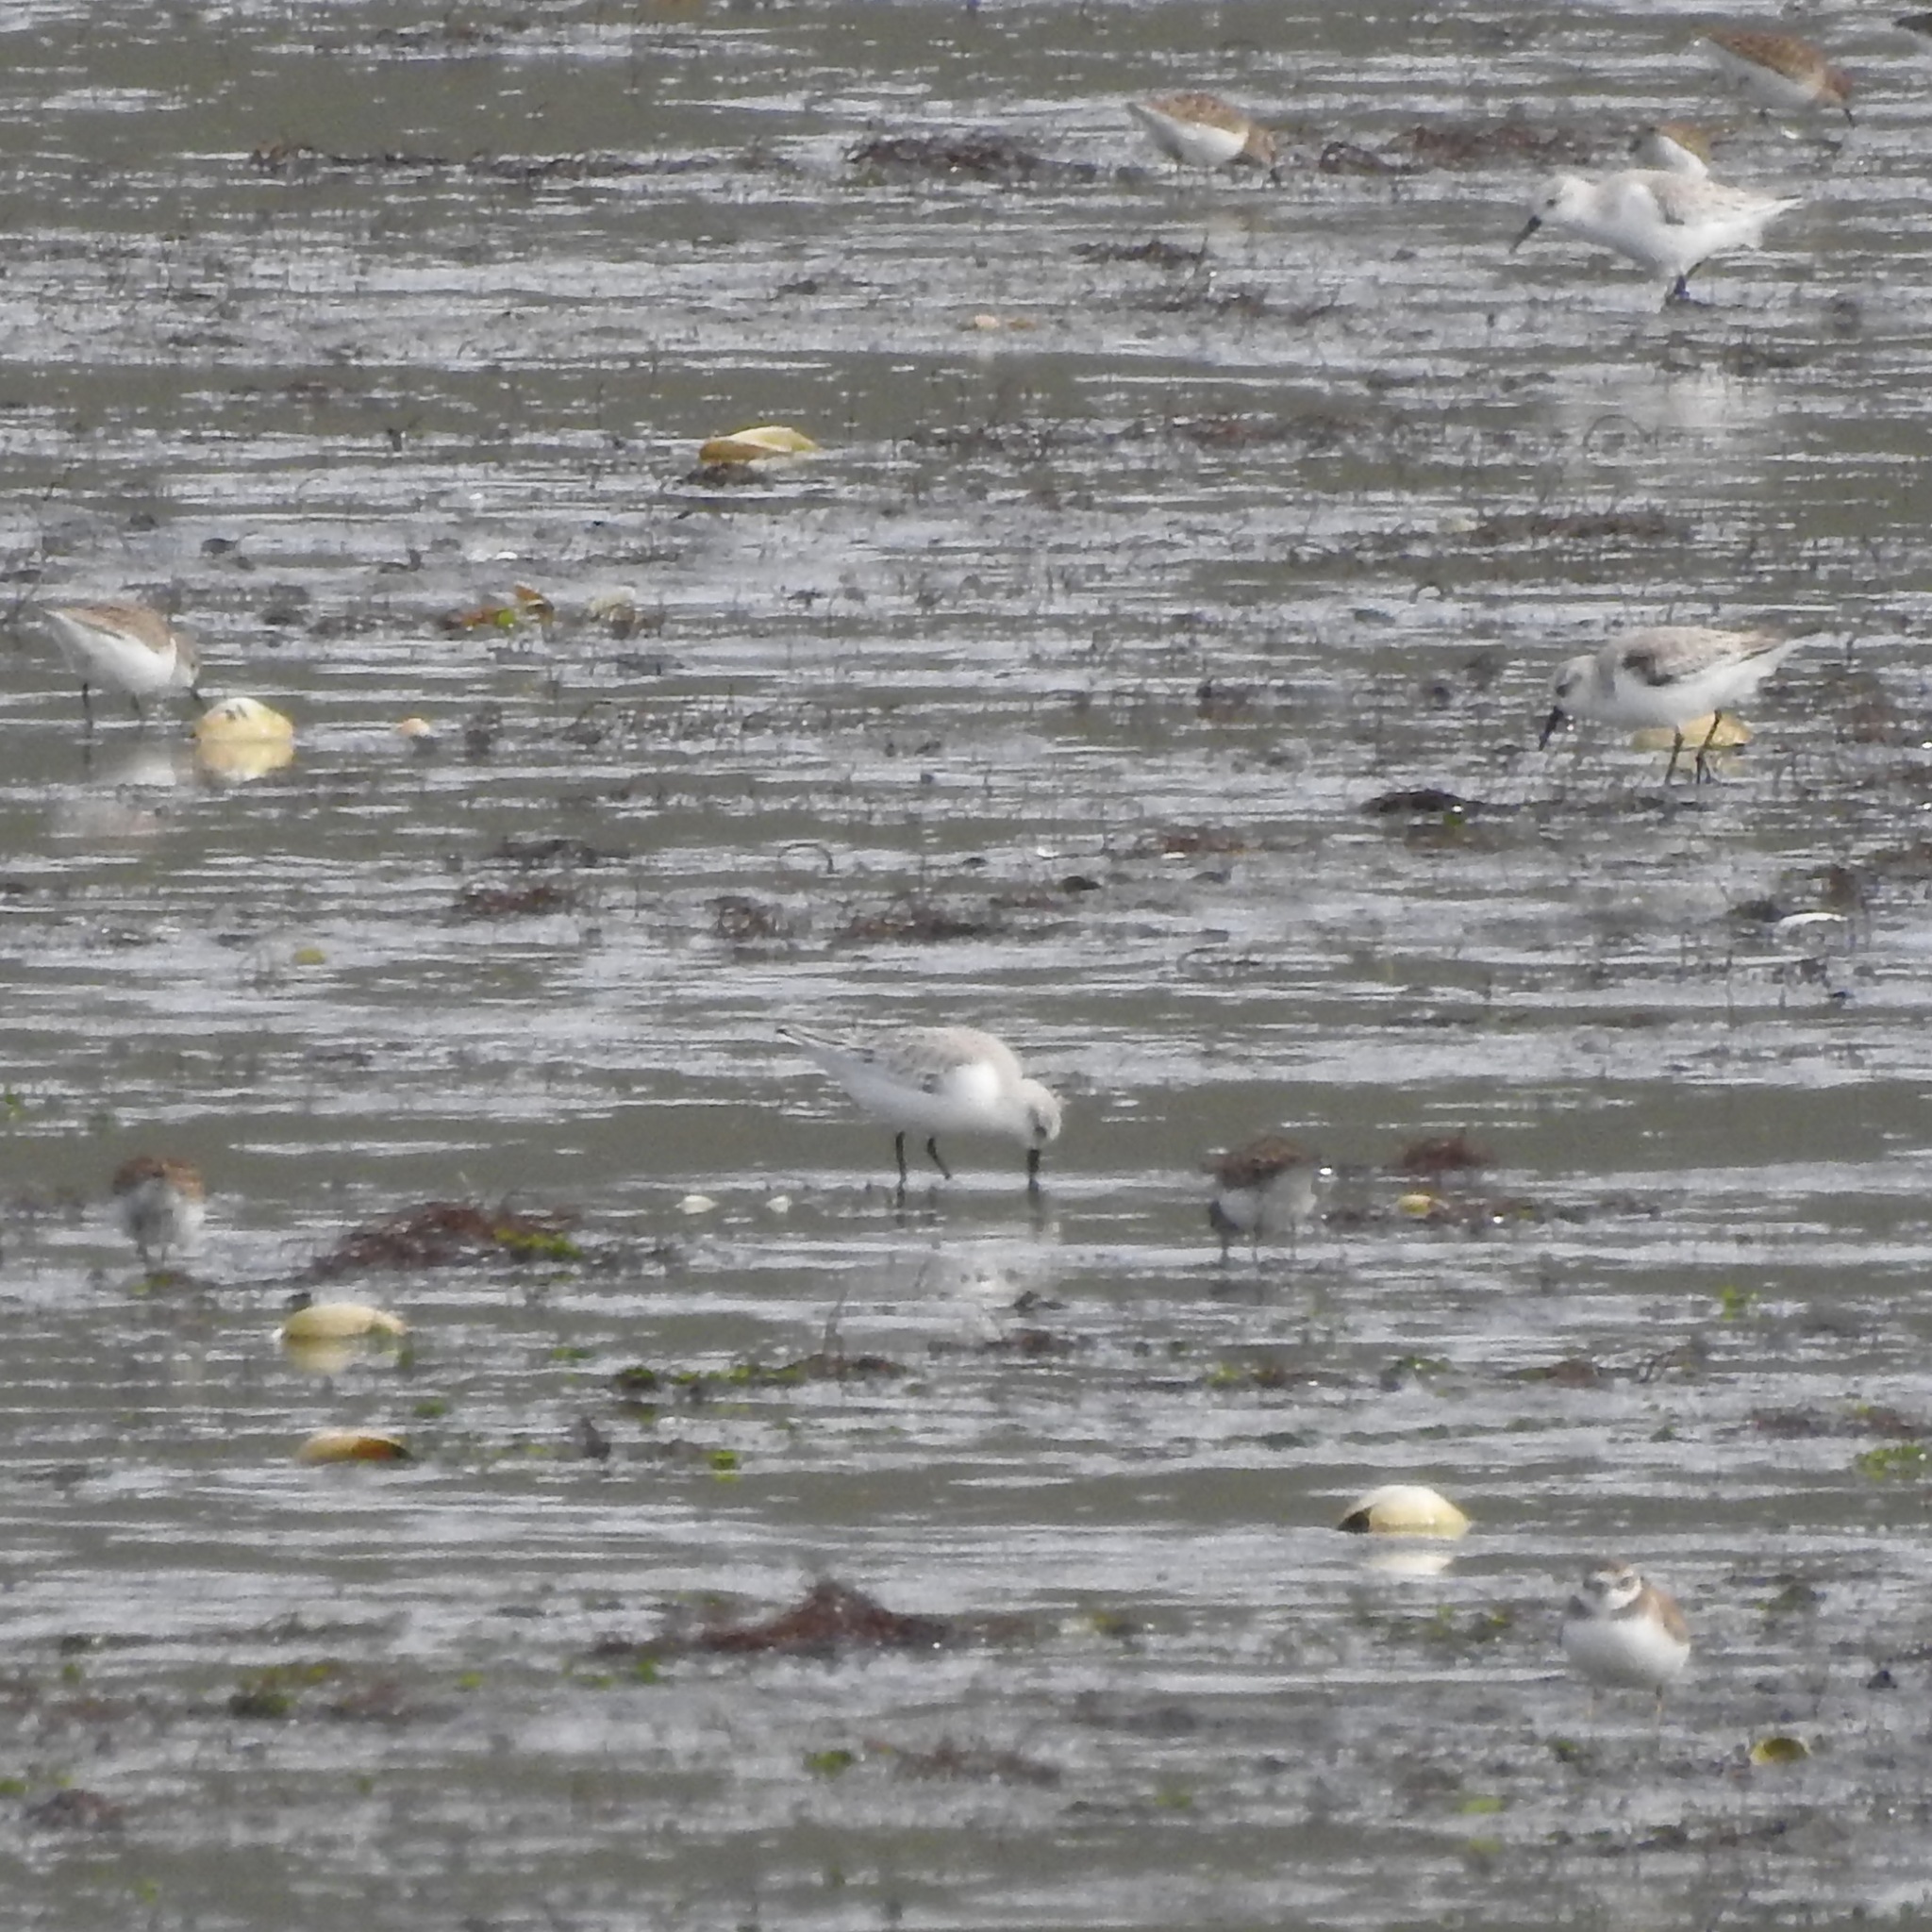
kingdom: Animalia
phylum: Chordata
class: Aves
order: Charadriiformes
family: Charadriidae
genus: Charadrius
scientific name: Charadrius semipalmatus
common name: Semipalmated plover
